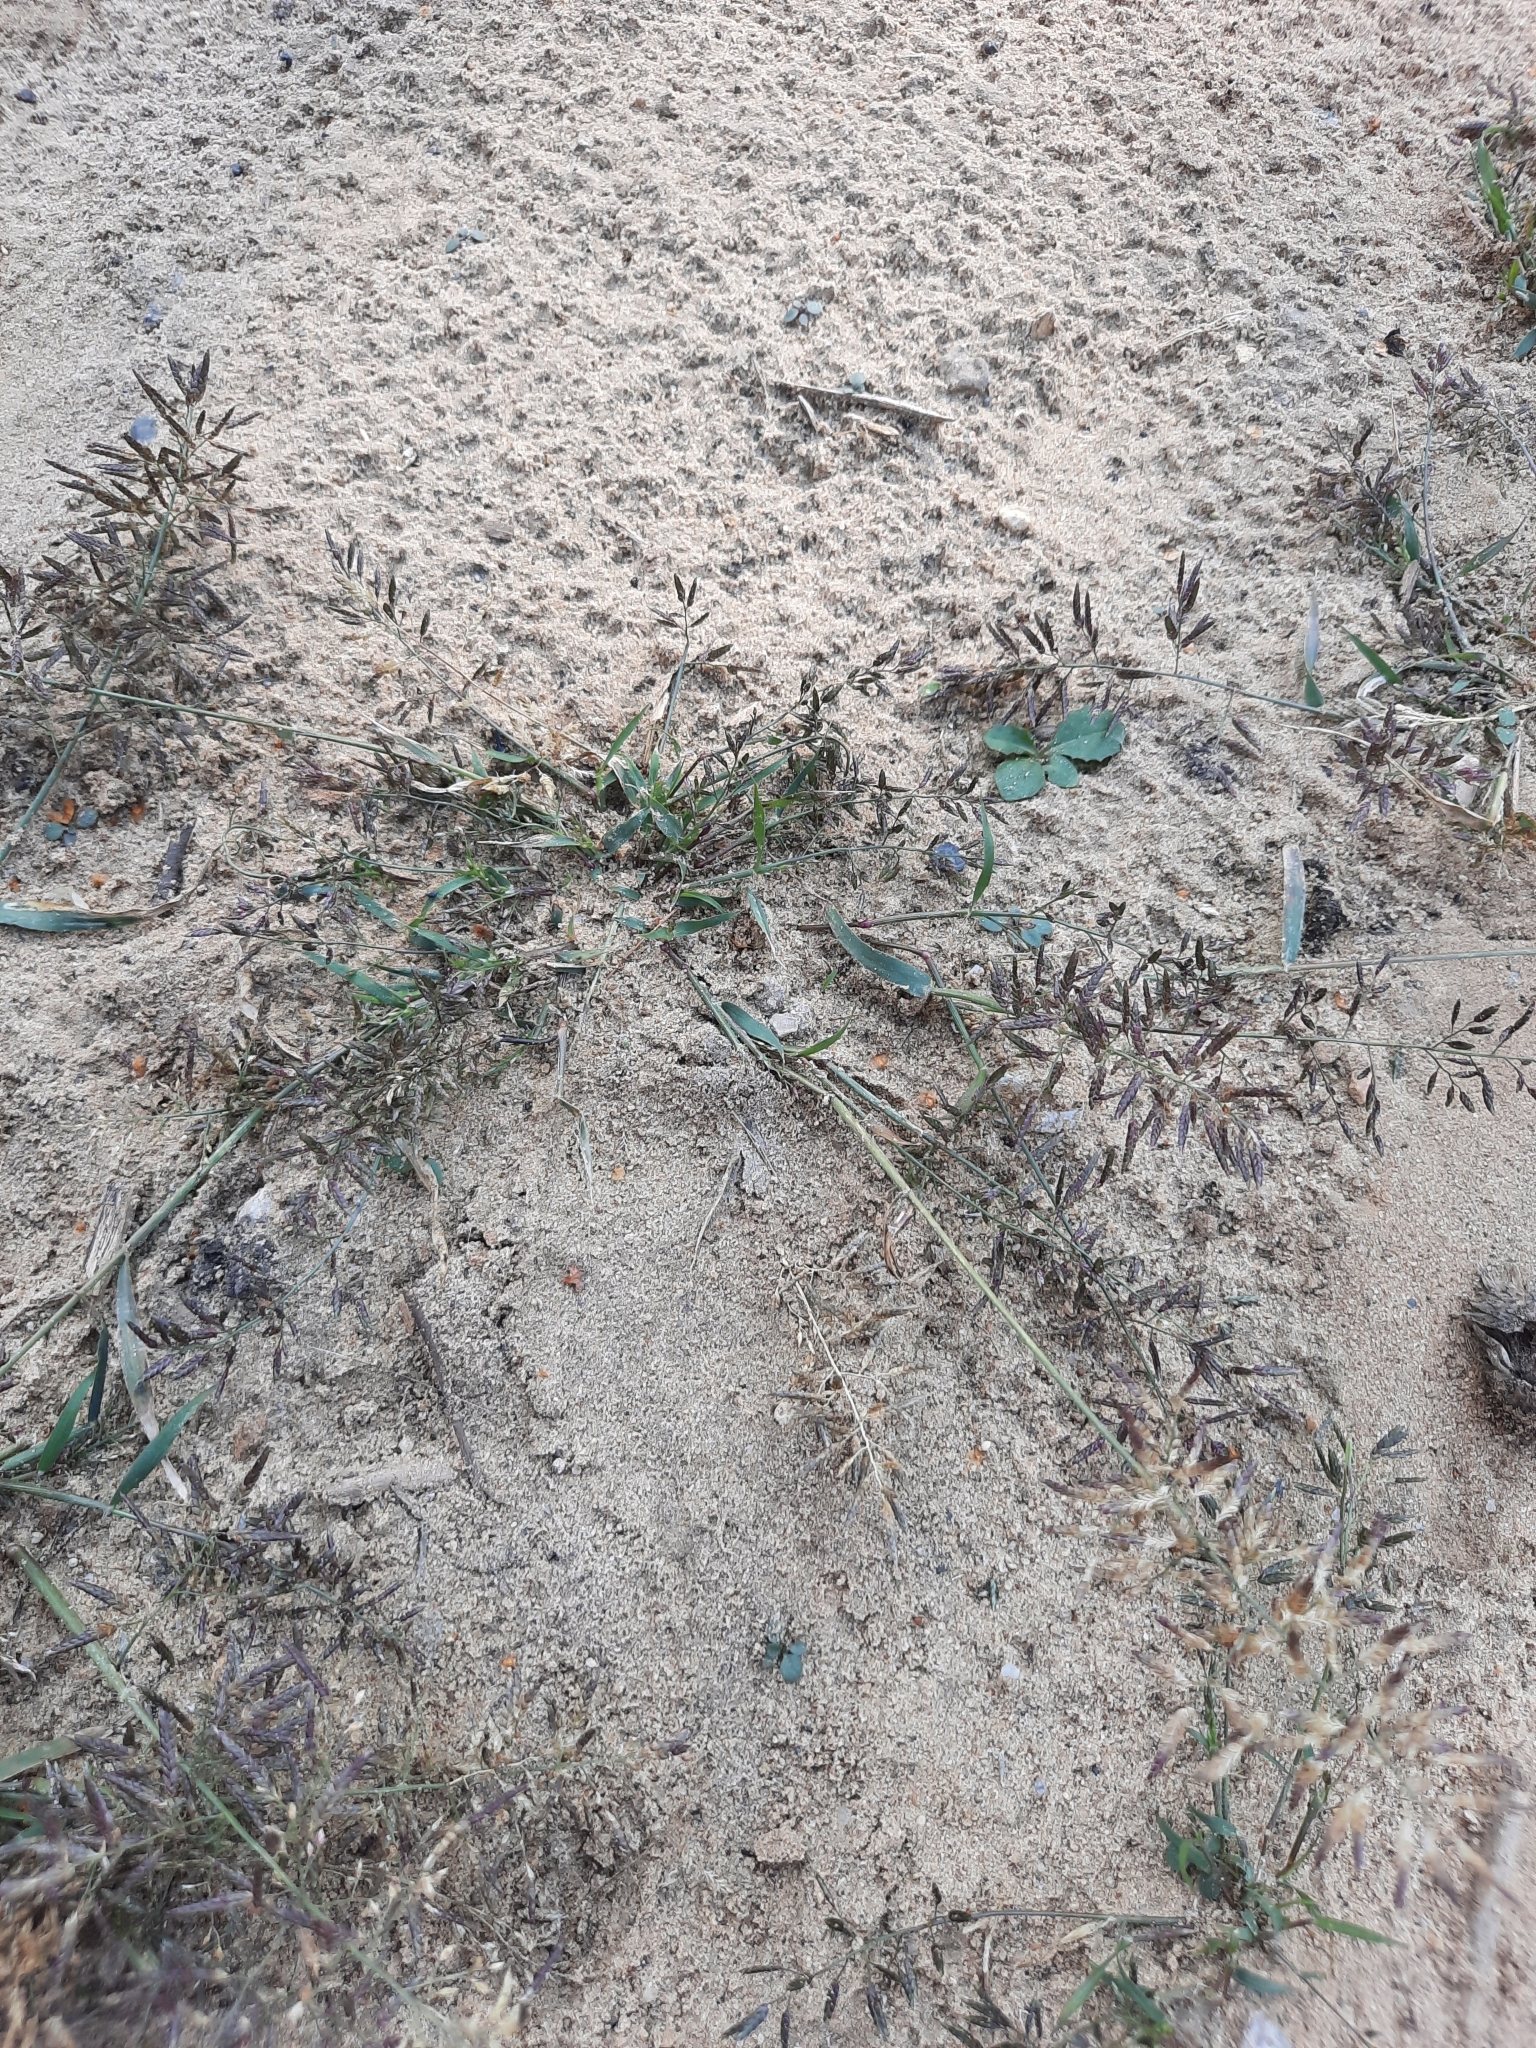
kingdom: Plantae
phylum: Tracheophyta
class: Liliopsida
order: Poales
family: Poaceae
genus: Eragrostis
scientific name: Eragrostis minor
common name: Small love-grass
